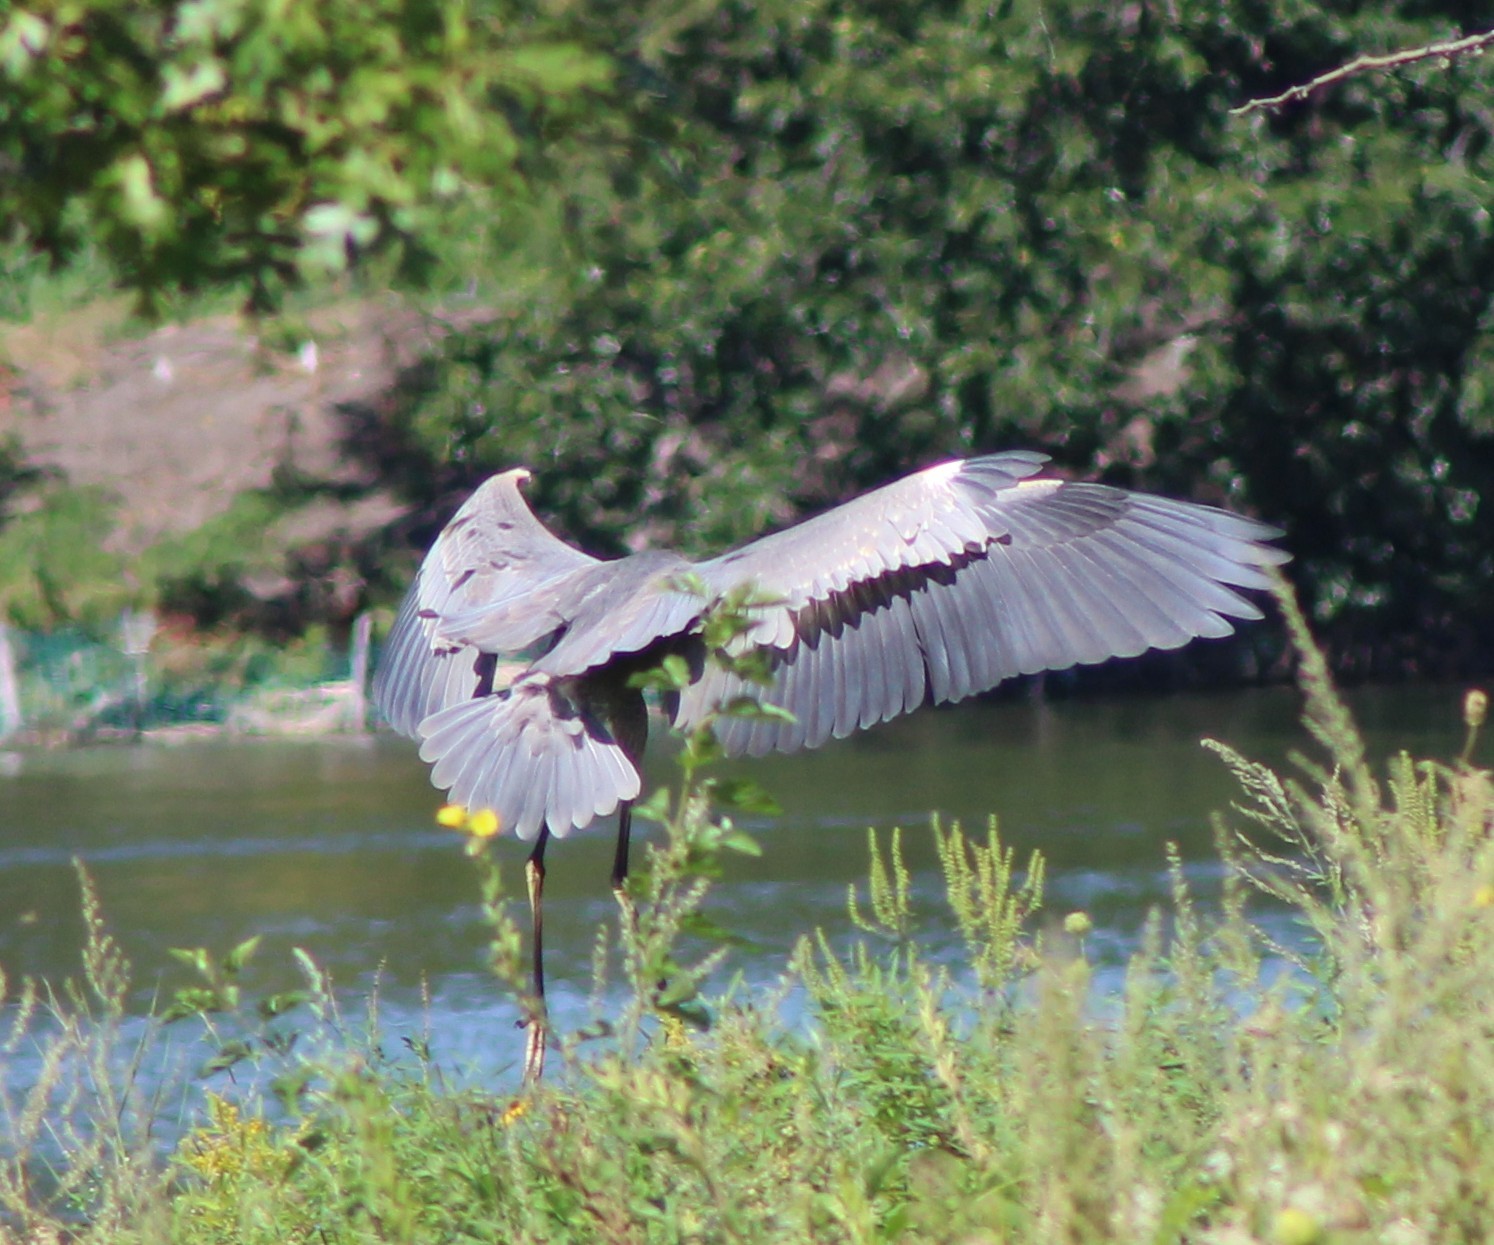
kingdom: Animalia
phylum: Chordata
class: Aves
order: Pelecaniformes
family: Ardeidae
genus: Ardea
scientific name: Ardea herodias
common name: Great blue heron
